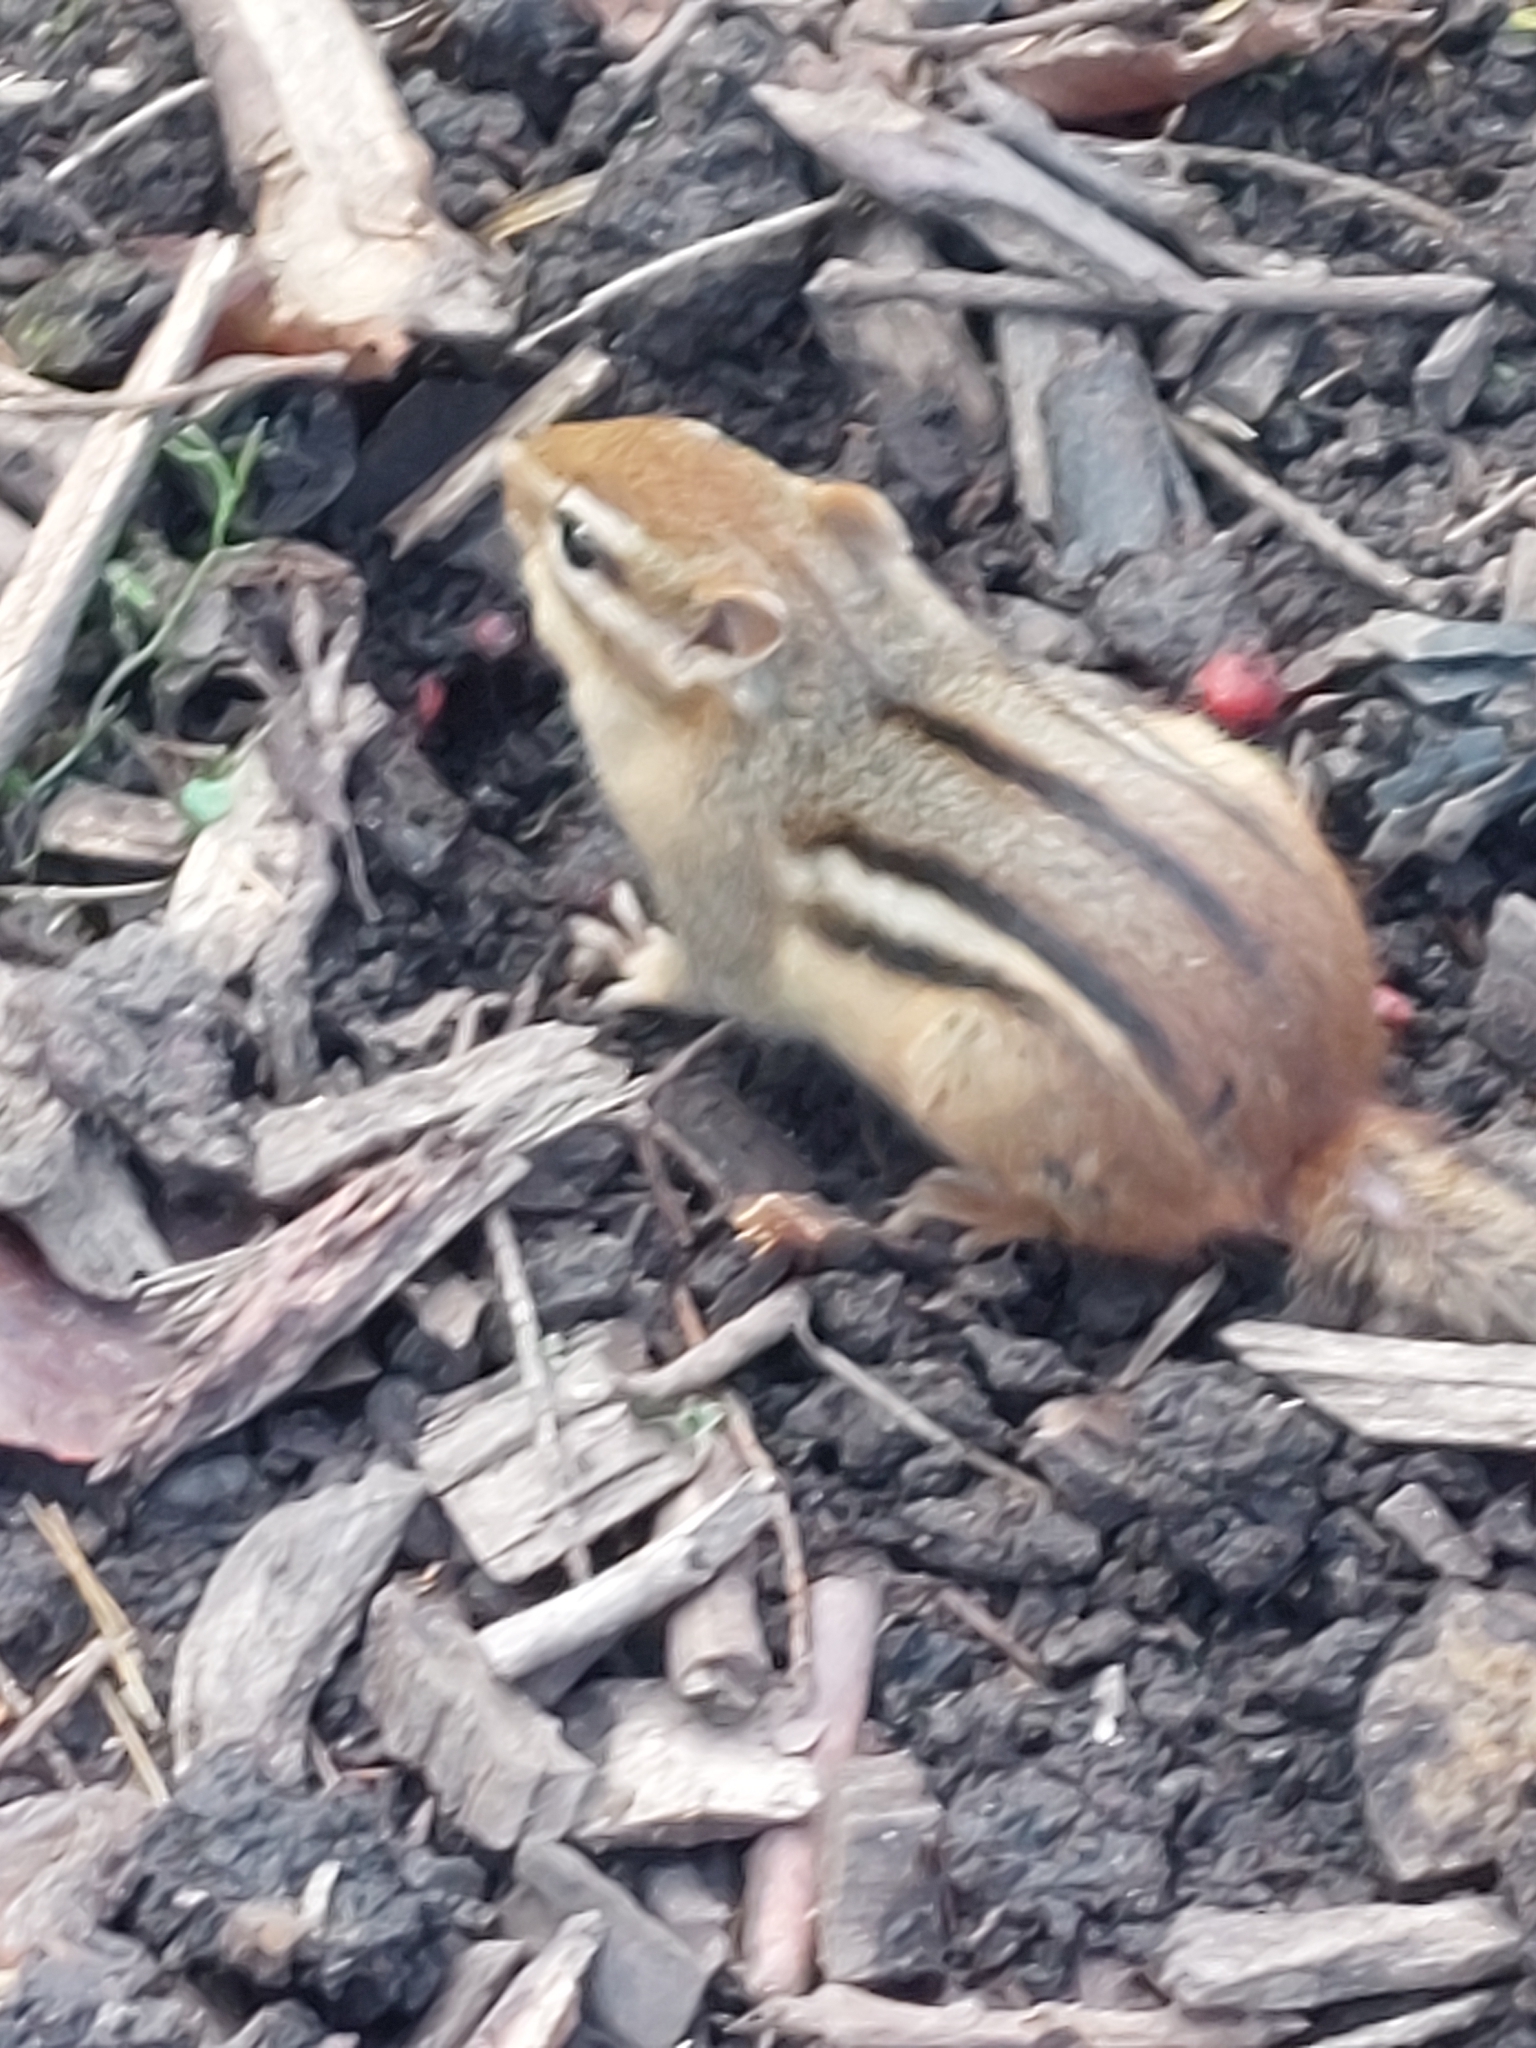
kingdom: Animalia
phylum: Chordata
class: Mammalia
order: Rodentia
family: Sciuridae
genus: Tamias
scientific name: Tamias striatus
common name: Eastern chipmunk
